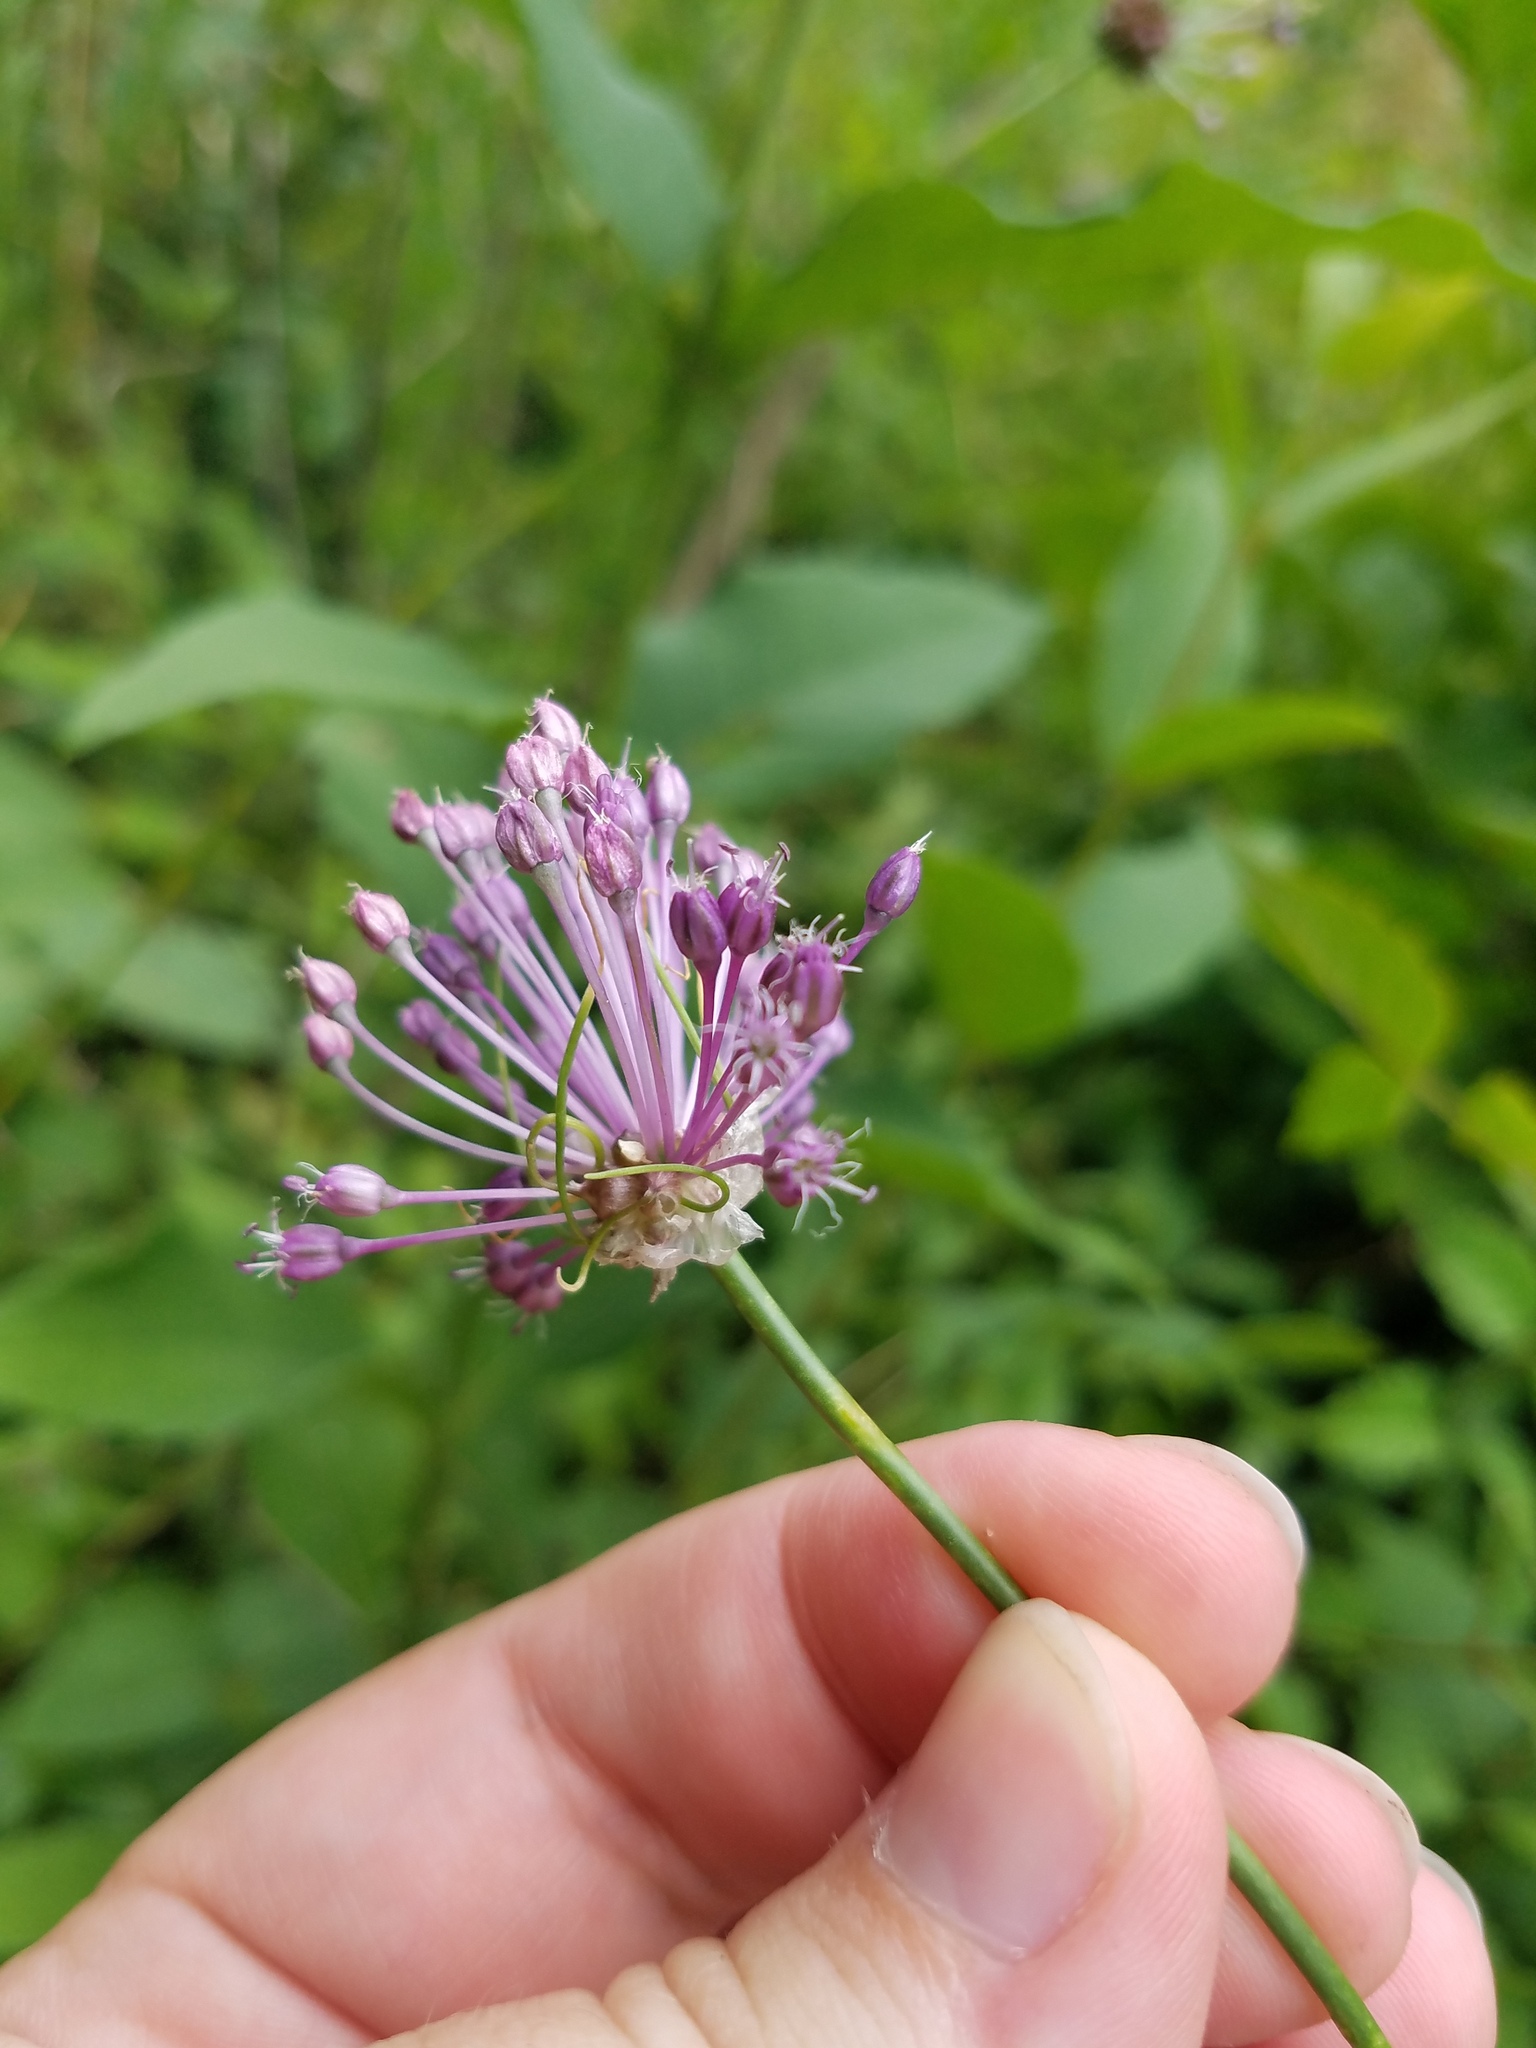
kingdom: Plantae
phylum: Tracheophyta
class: Liliopsida
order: Asparagales
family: Amaryllidaceae
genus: Allium
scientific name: Allium vineale
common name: Crow garlic
